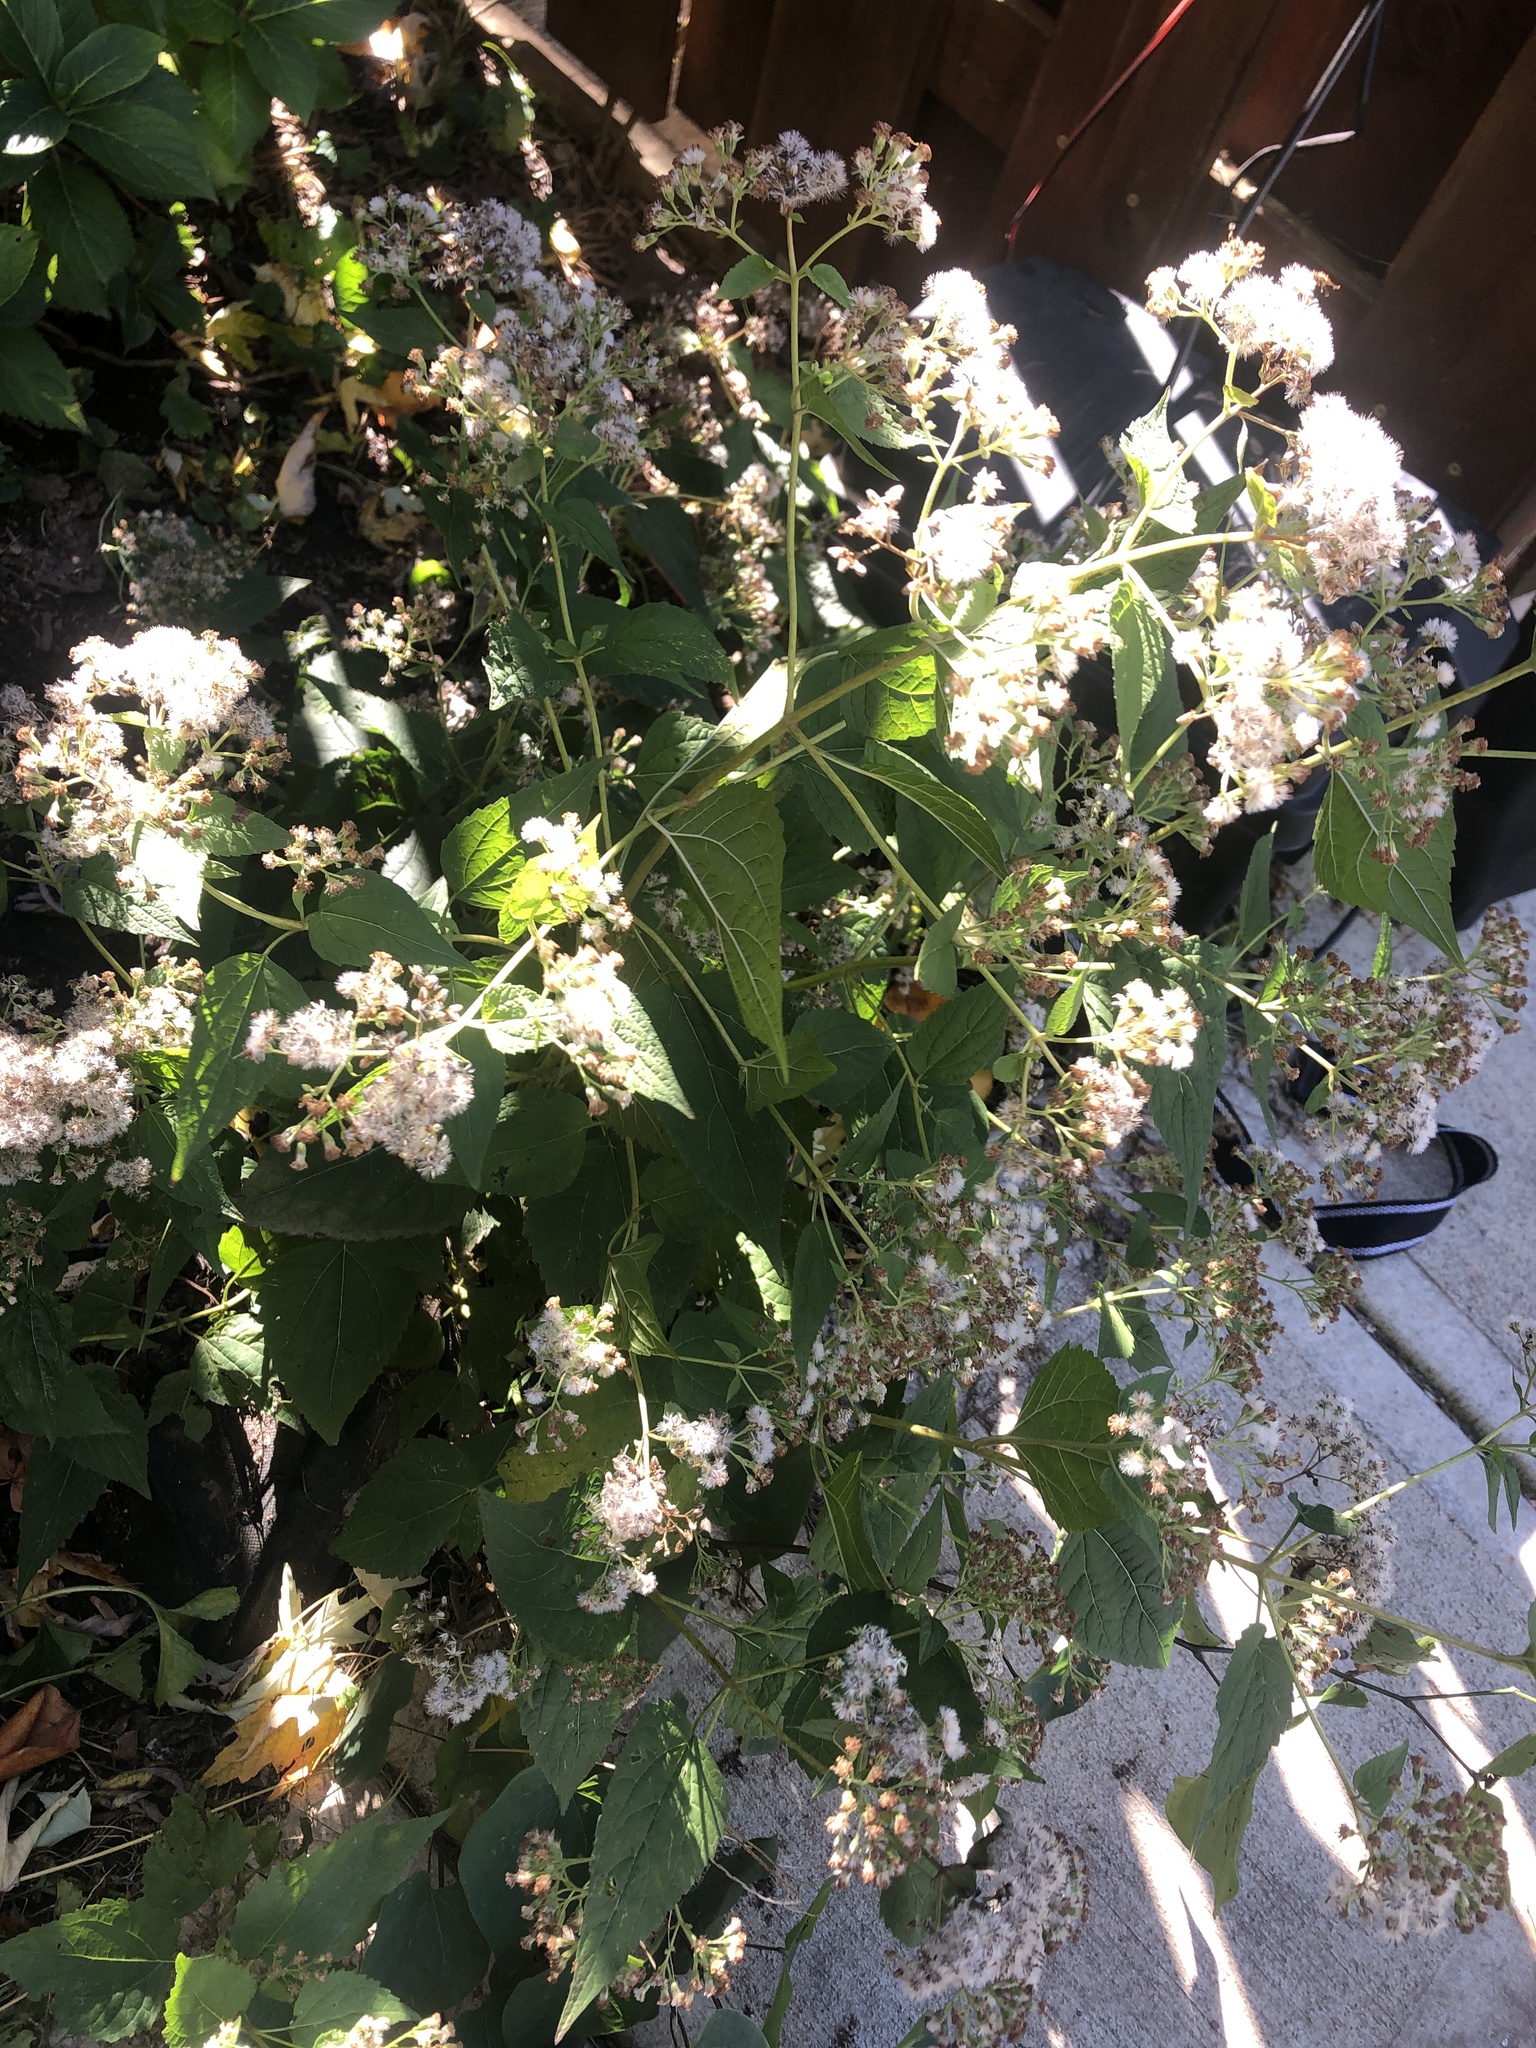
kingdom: Plantae
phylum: Tracheophyta
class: Magnoliopsida
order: Asterales
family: Asteraceae
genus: Ageratina
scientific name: Ageratina altissima
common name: White snakeroot
